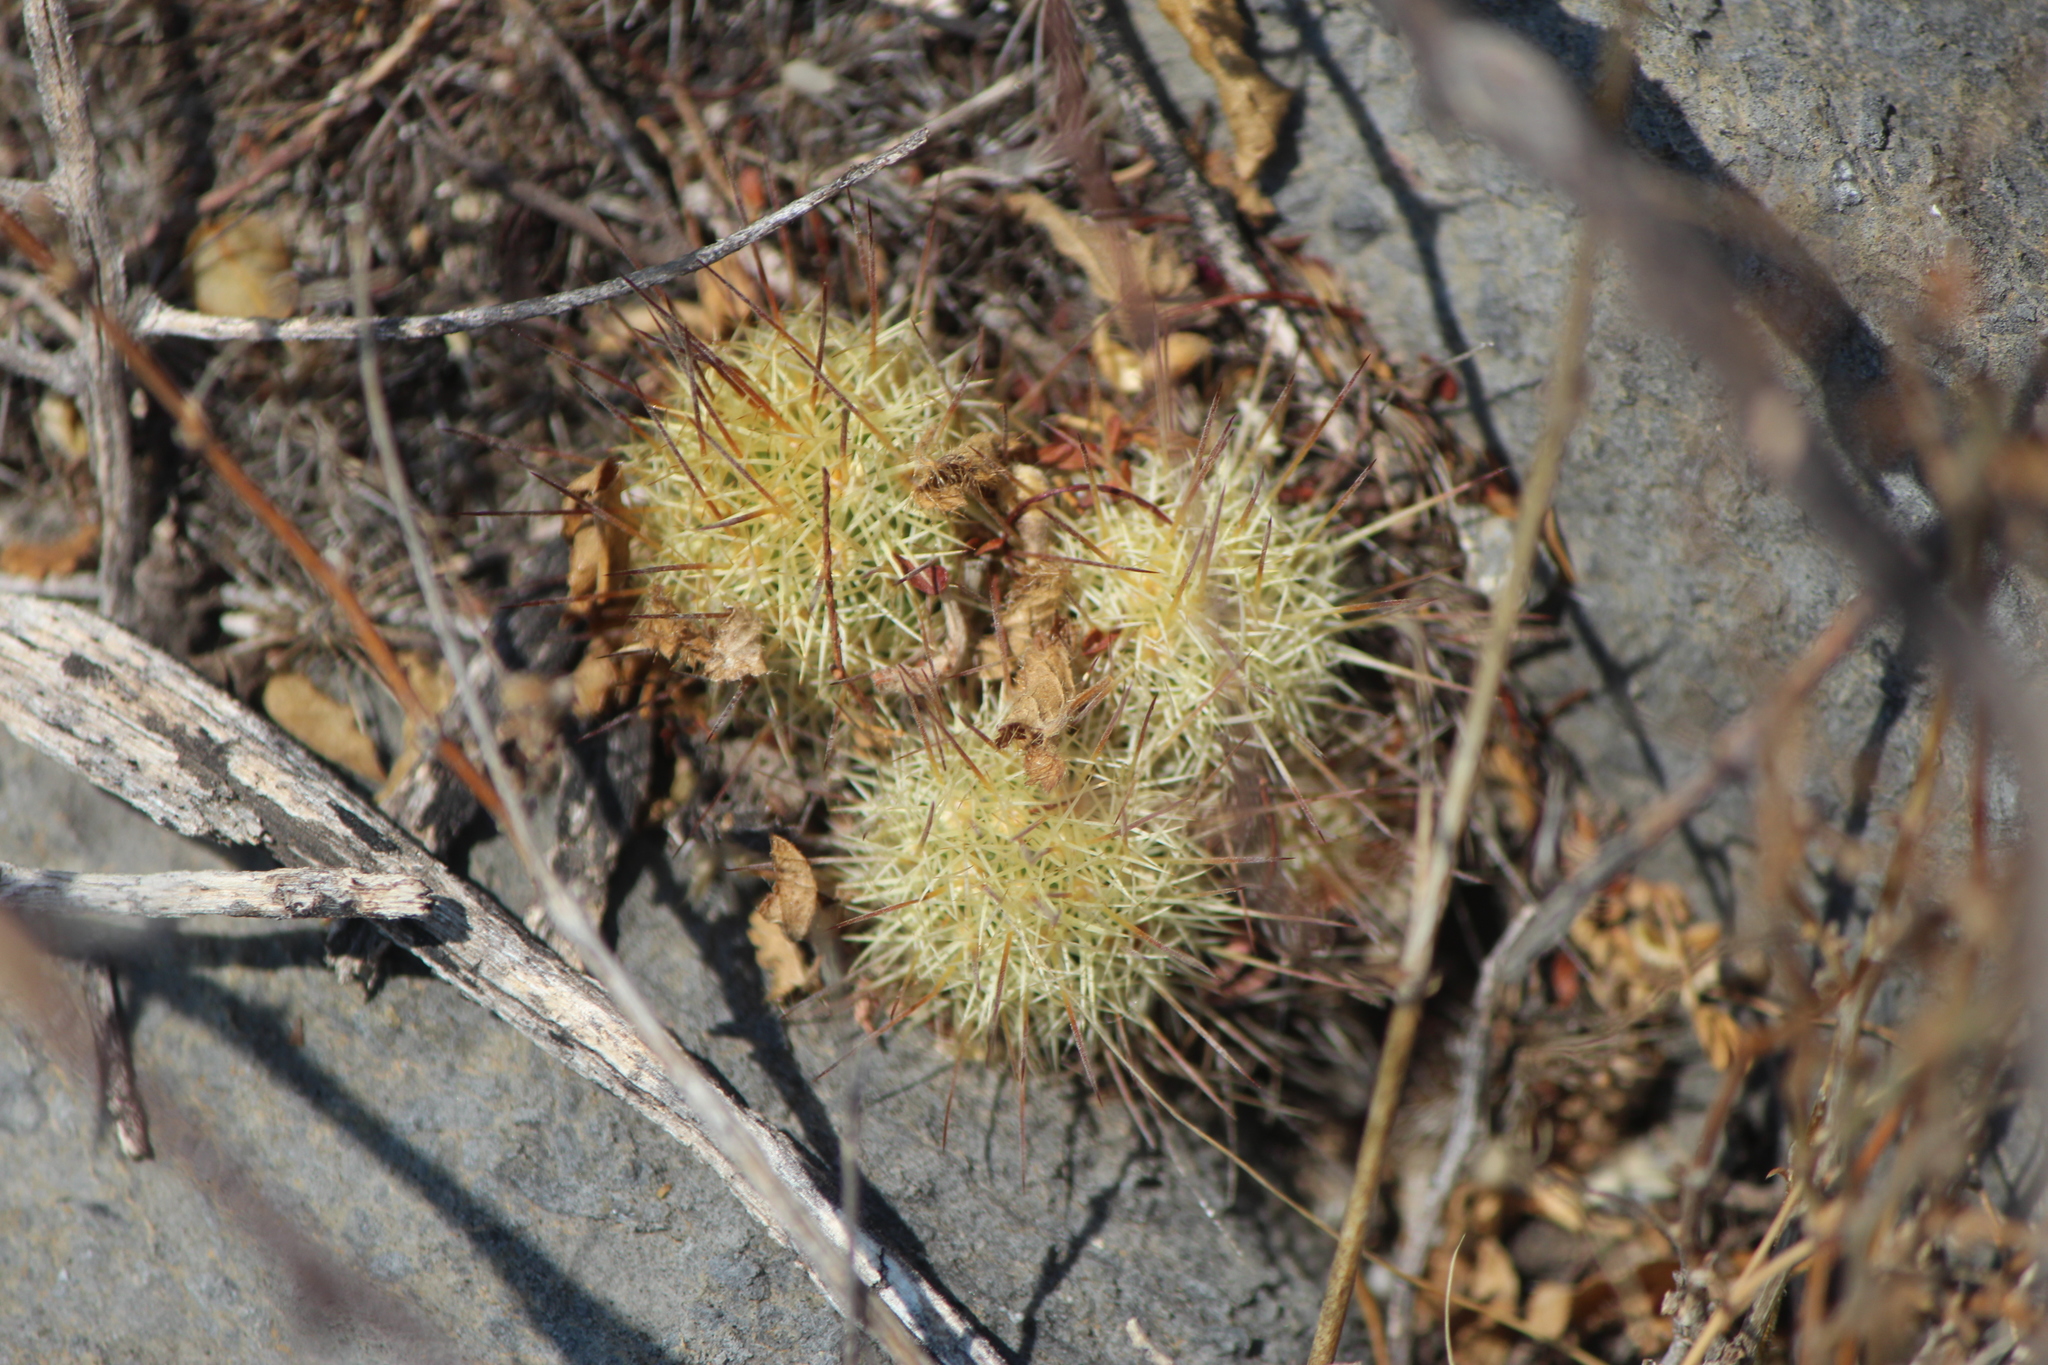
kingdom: Plantae
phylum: Tracheophyta
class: Magnoliopsida
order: Caryophyllales
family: Cactaceae
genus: Mammillaria
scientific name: Mammillaria elongata
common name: Golden star cactus
